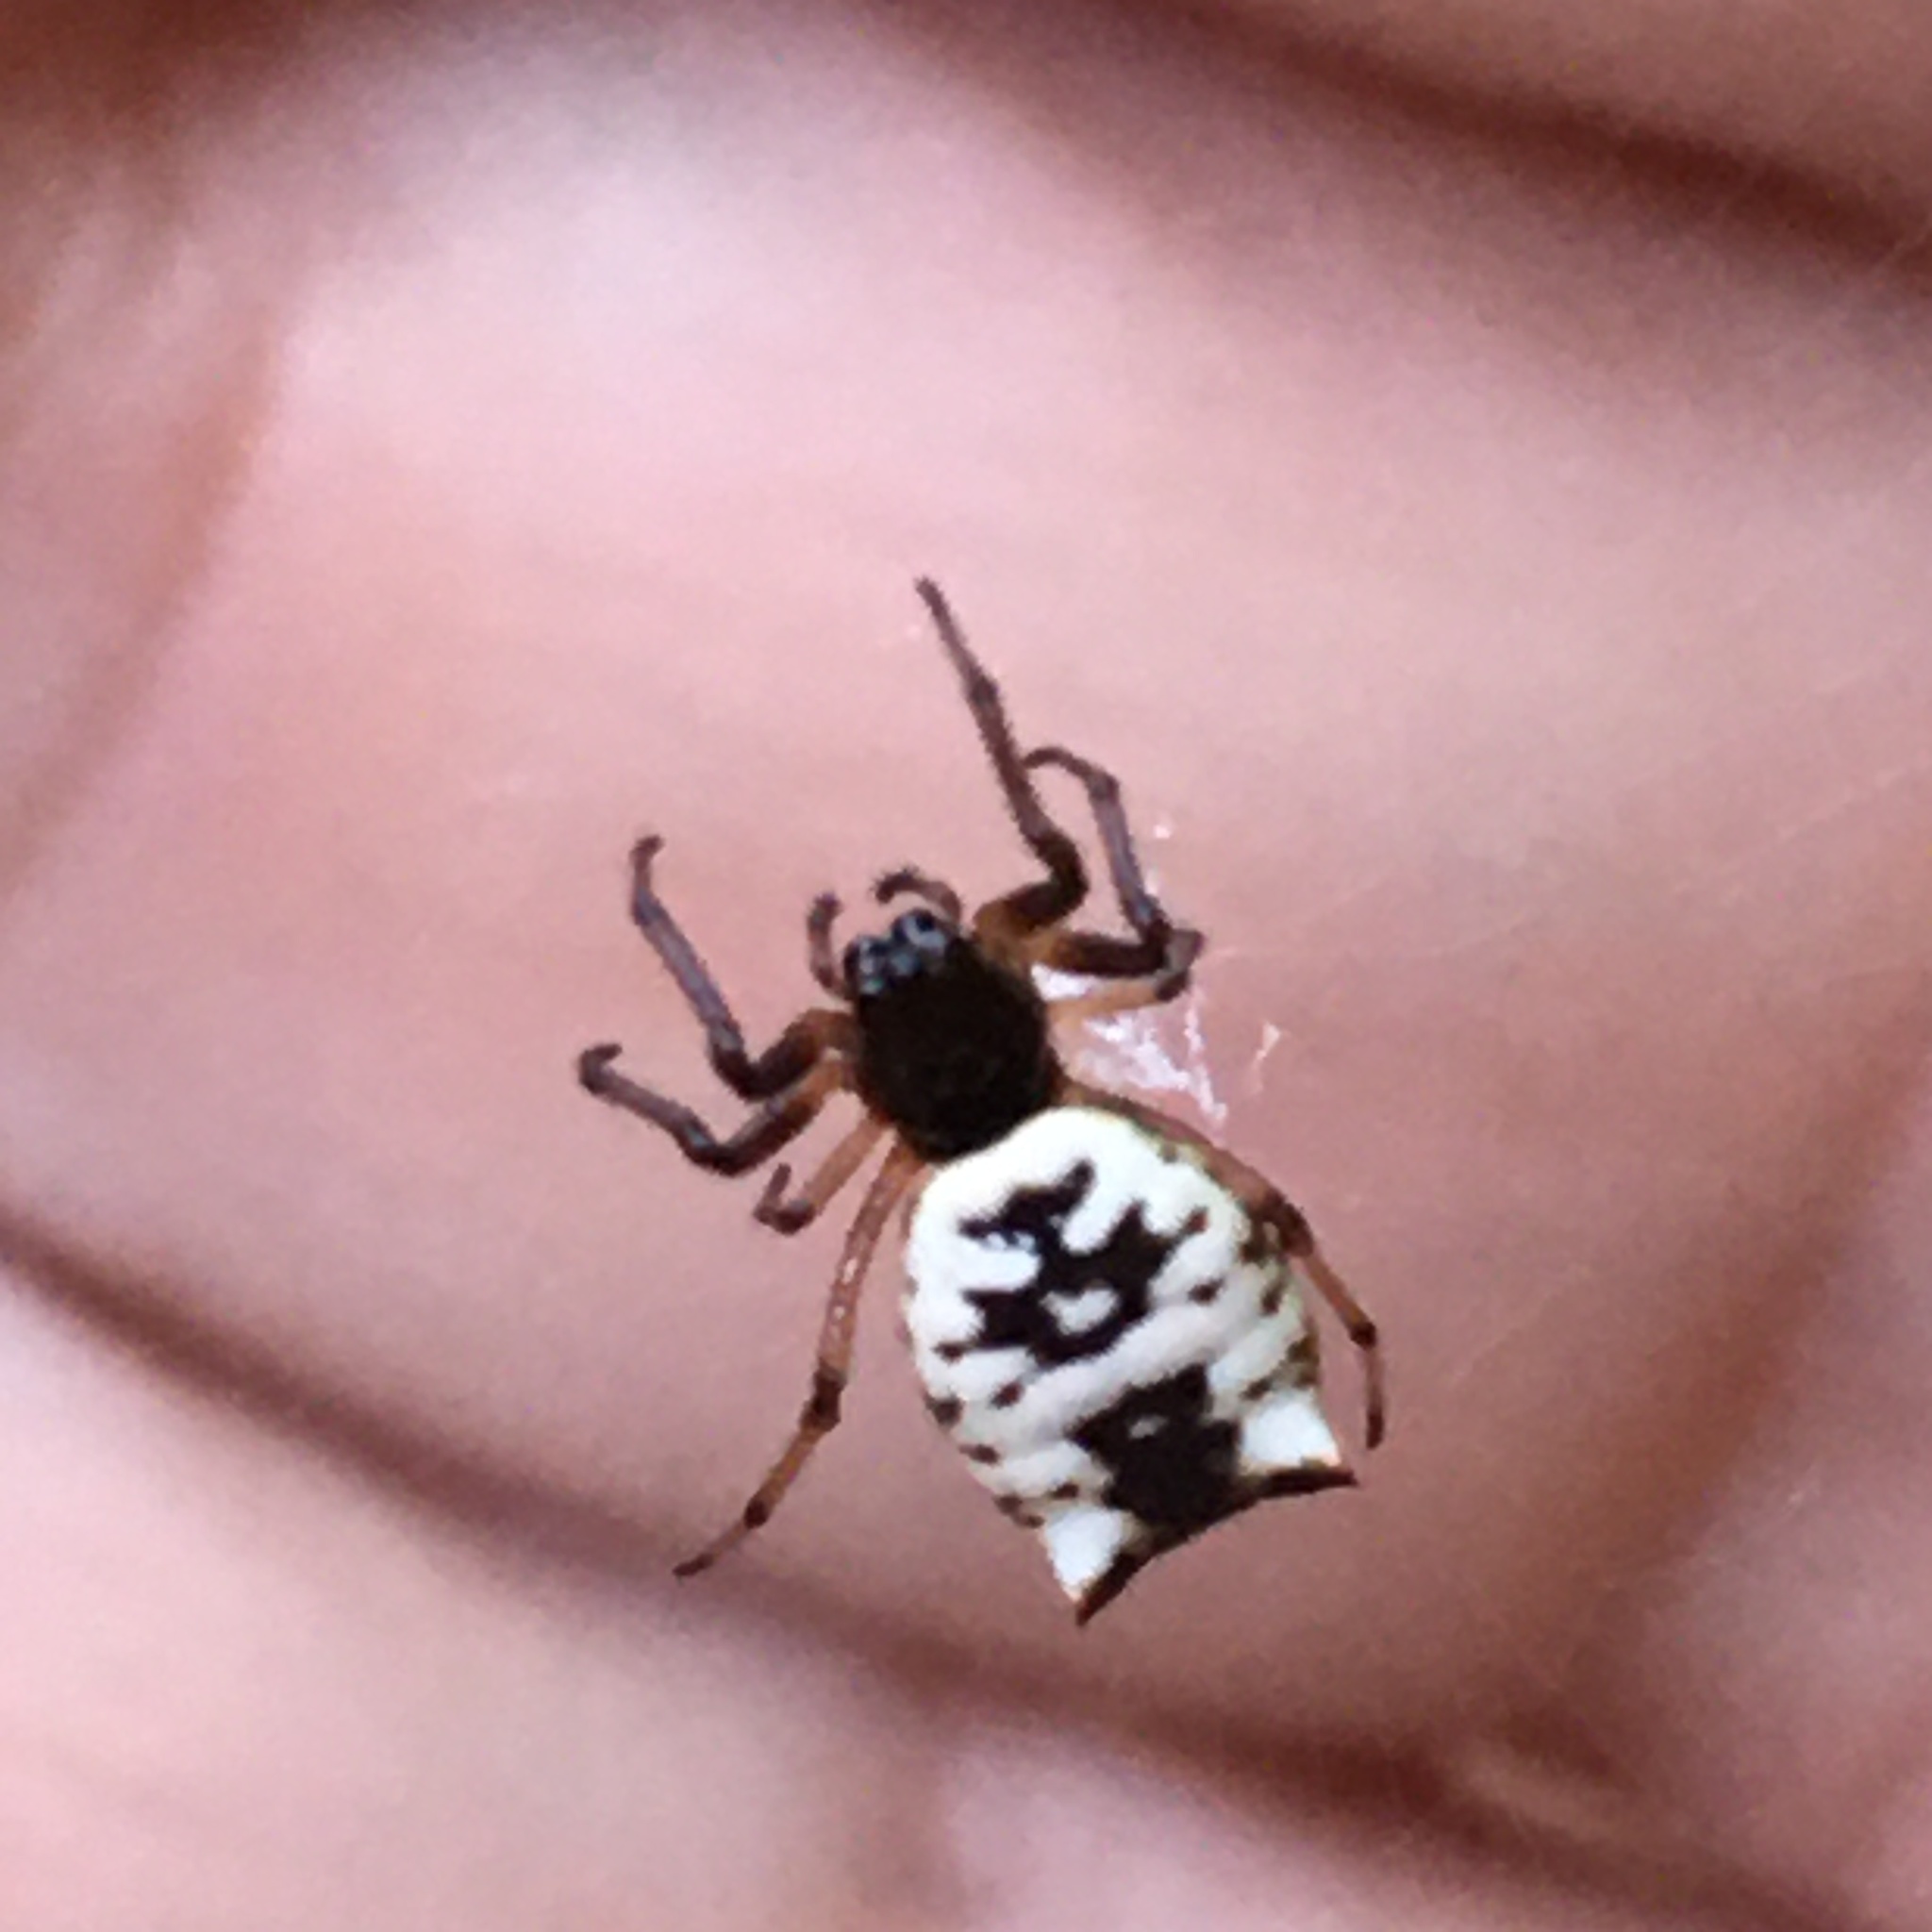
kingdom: Animalia
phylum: Arthropoda
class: Arachnida
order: Araneae
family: Araneidae
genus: Micrathena
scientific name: Micrathena mitrata
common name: Orb weavers
